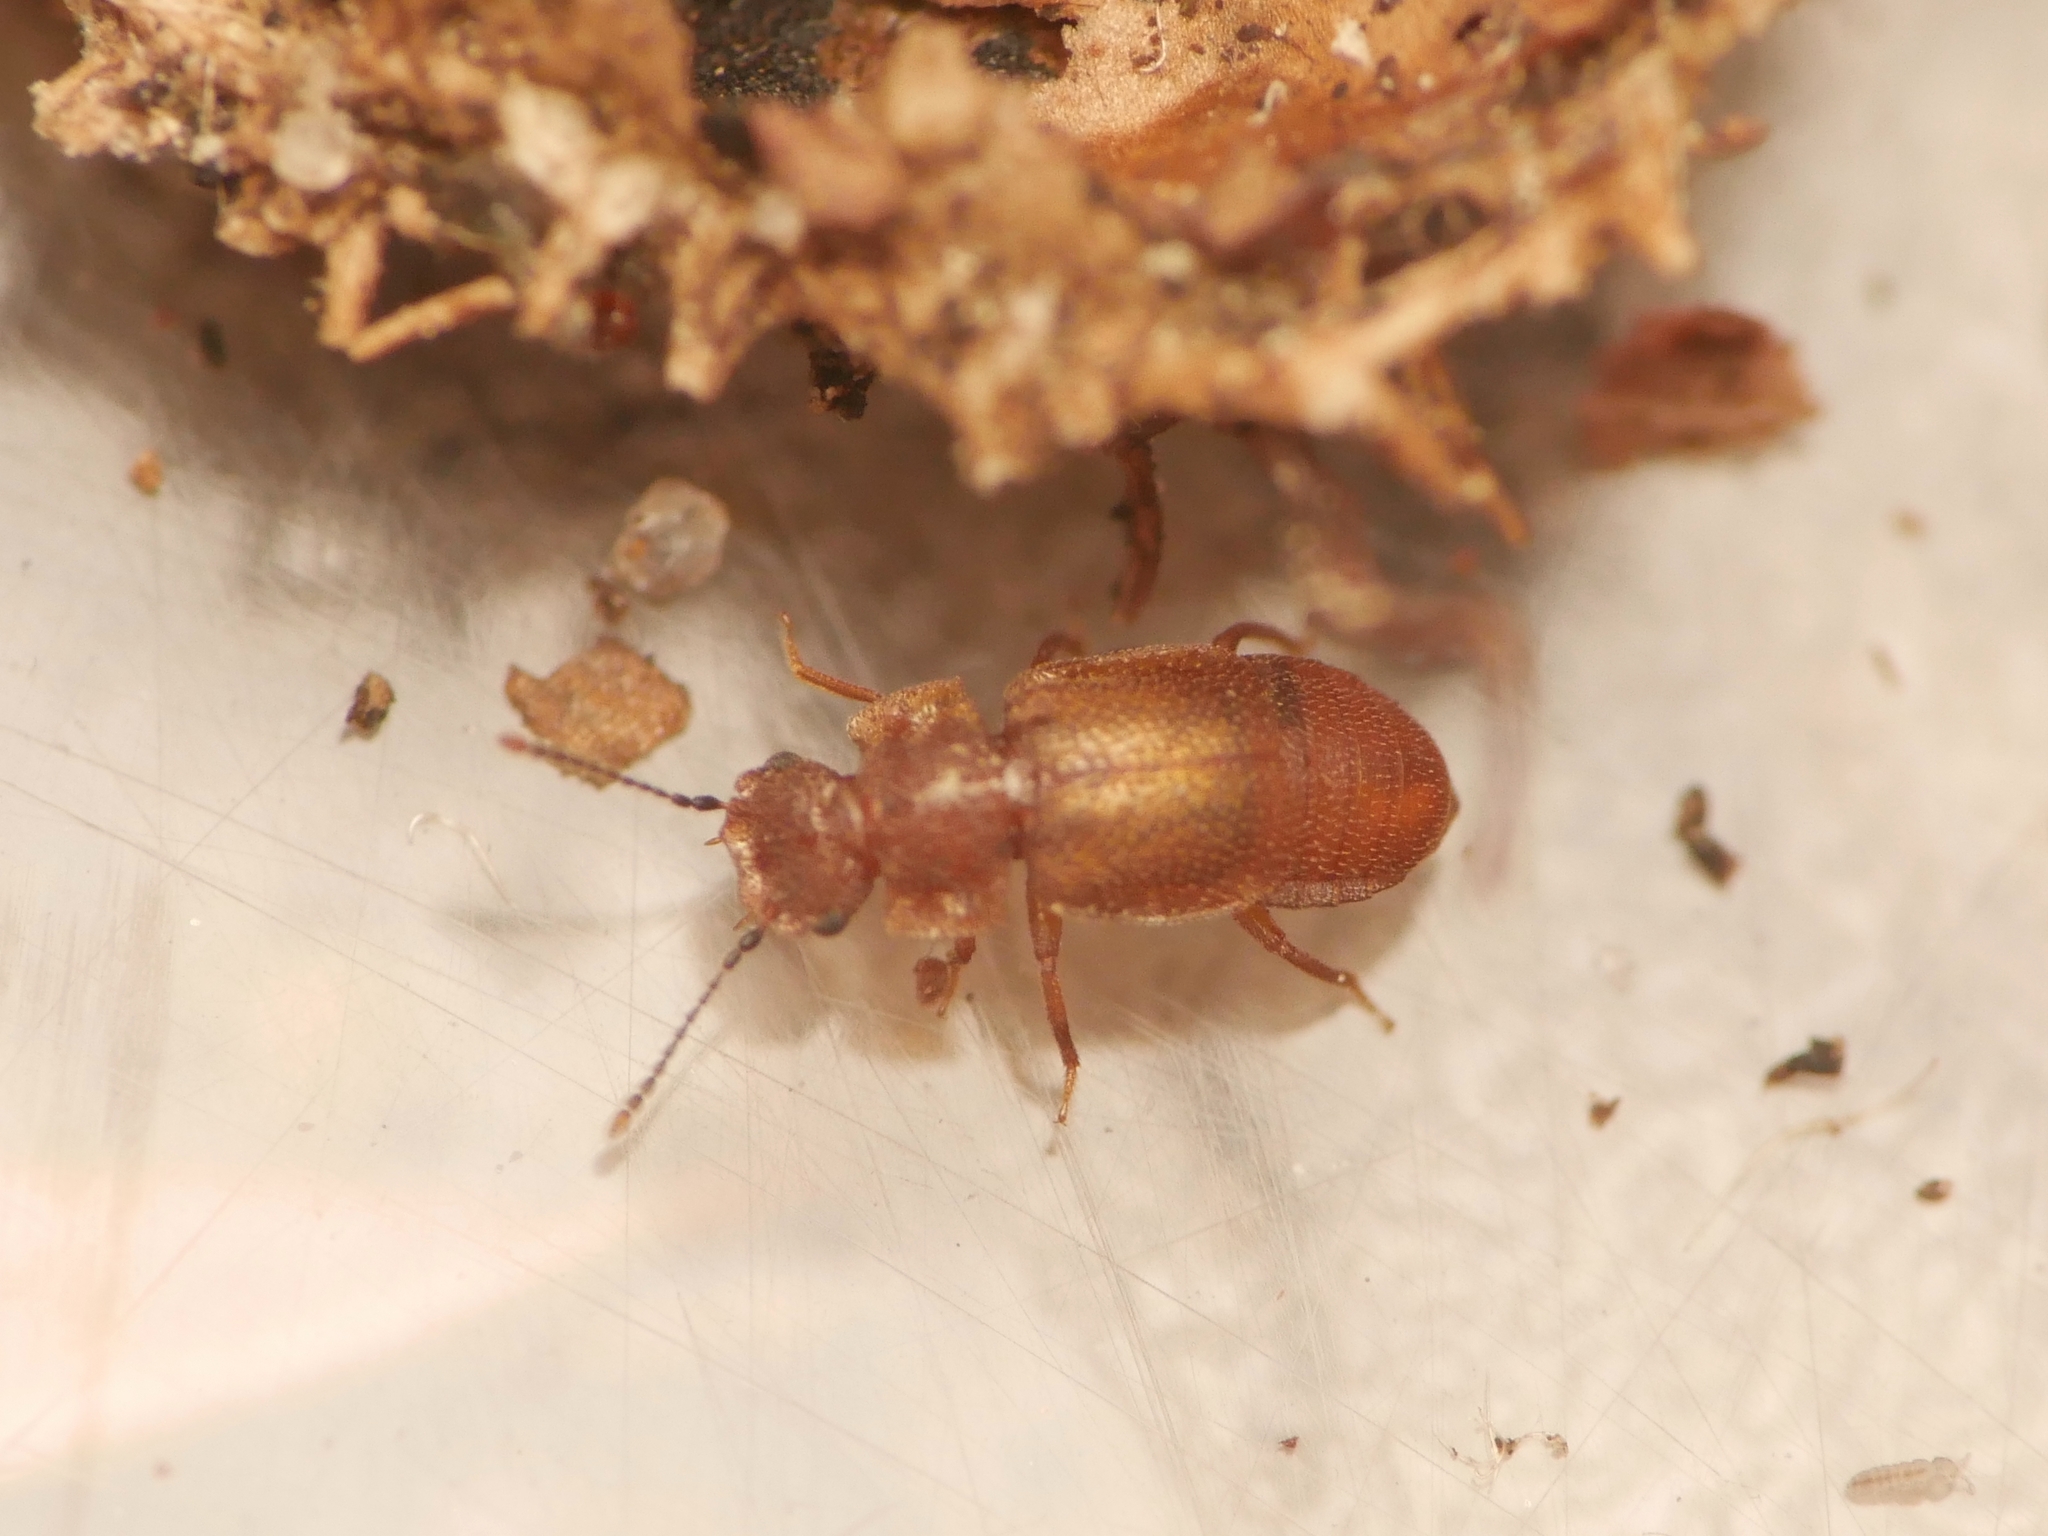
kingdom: Animalia
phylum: Arthropoda
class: Insecta
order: Coleoptera
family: Staphylinidae
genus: Metopsia
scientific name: Metopsia similis
